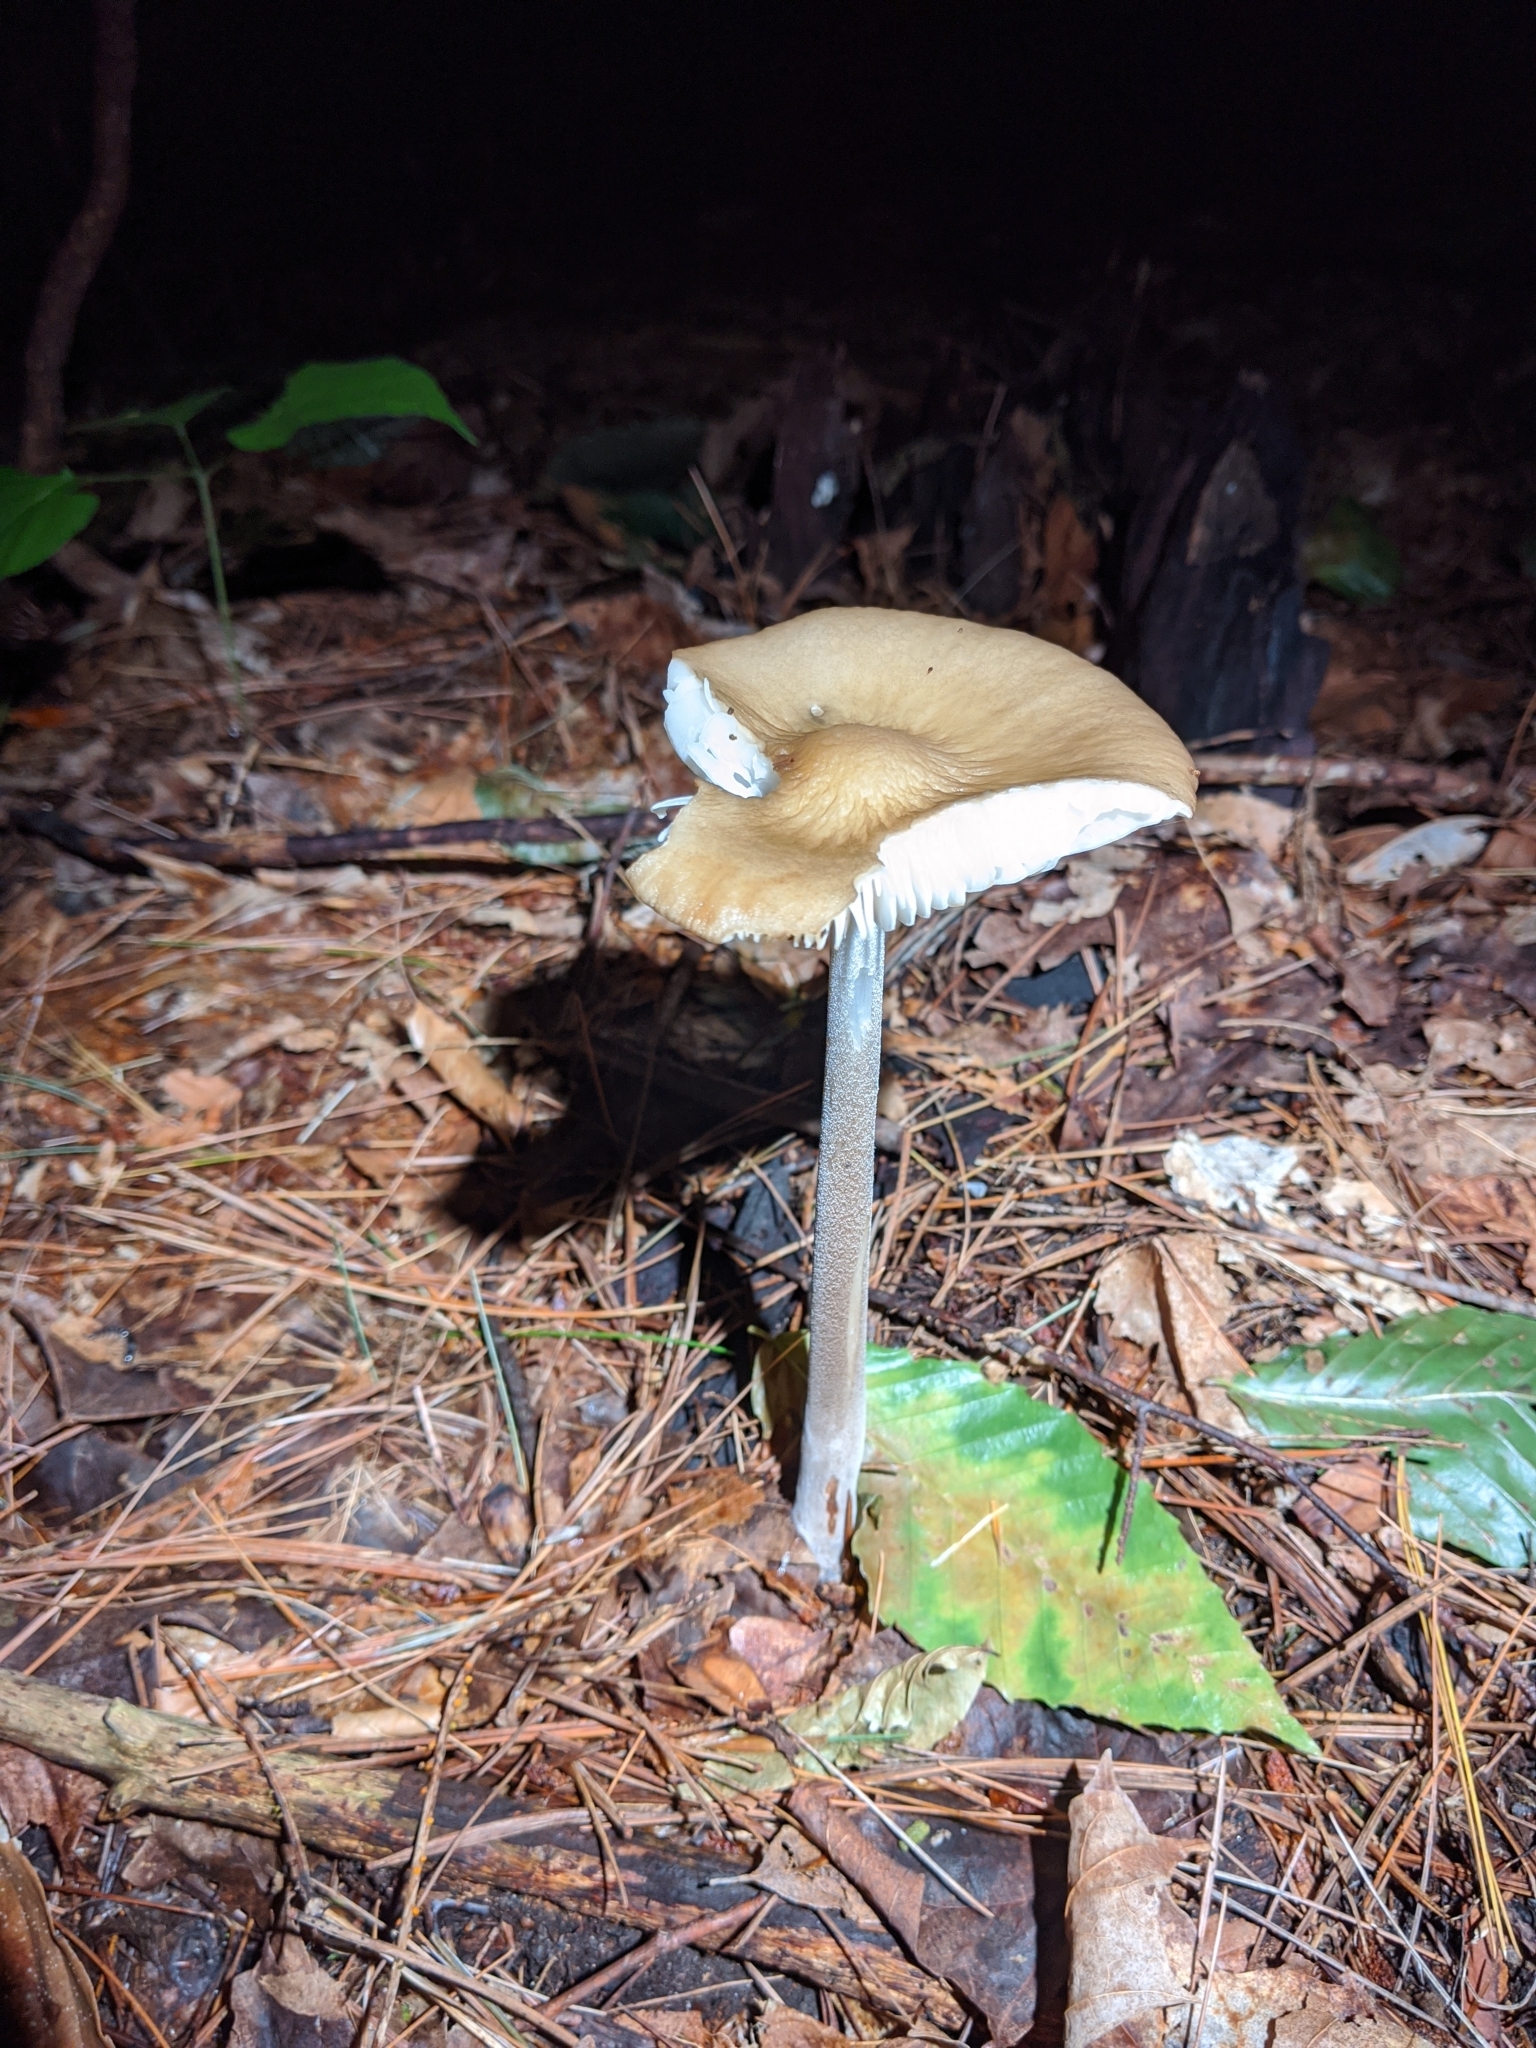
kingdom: Fungi
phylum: Basidiomycota
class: Agaricomycetes
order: Agaricales
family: Physalacriaceae
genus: Hymenopellis
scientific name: Hymenopellis furfuracea
